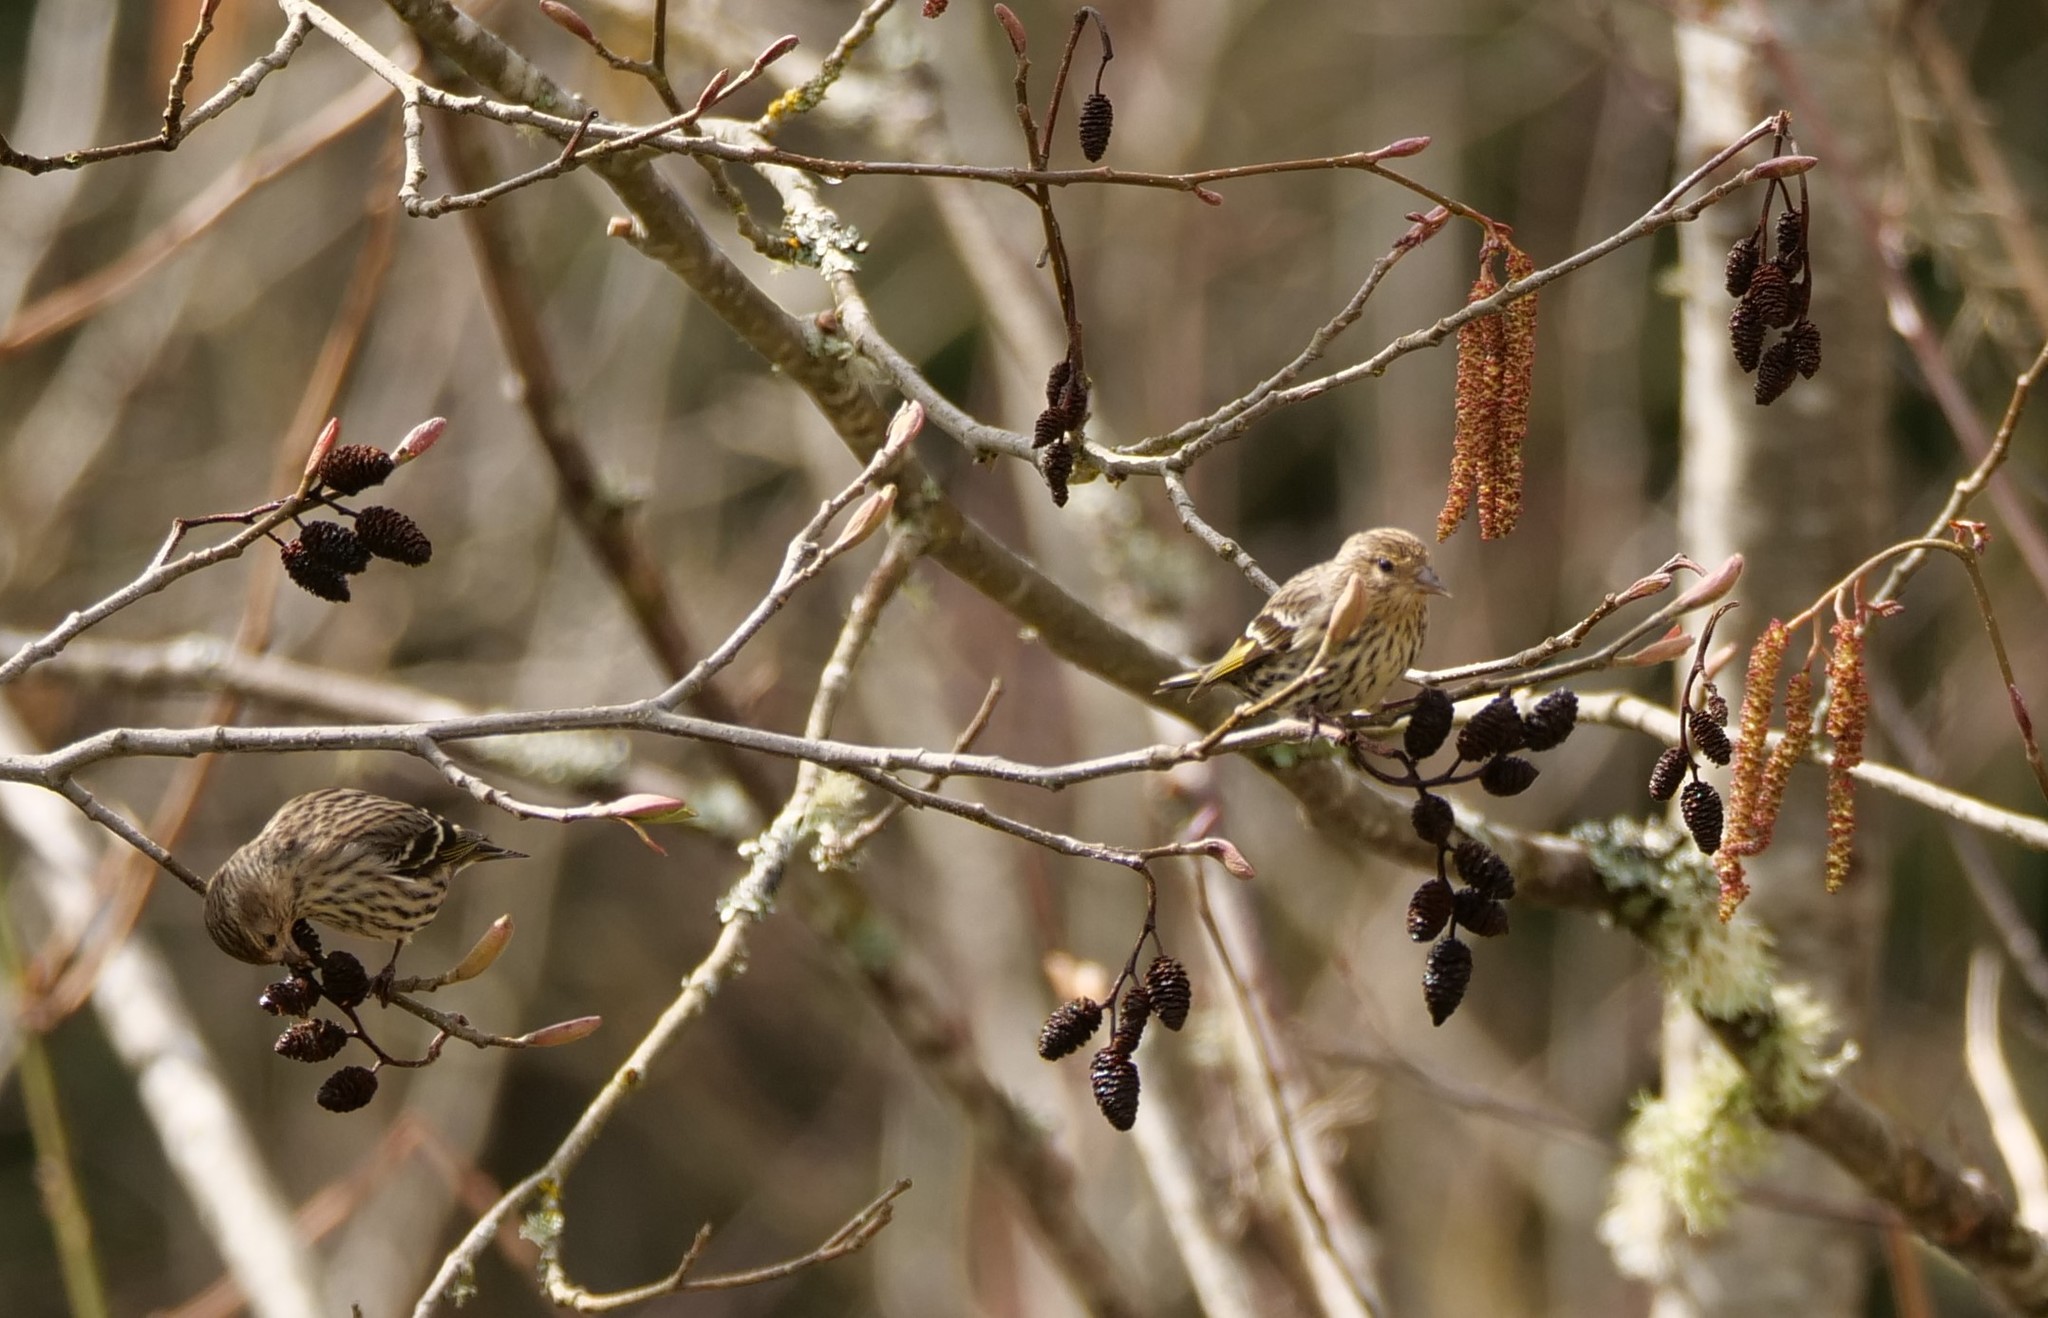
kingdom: Animalia
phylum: Chordata
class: Aves
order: Passeriformes
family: Fringillidae
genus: Spinus
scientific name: Spinus pinus
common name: Pine siskin
